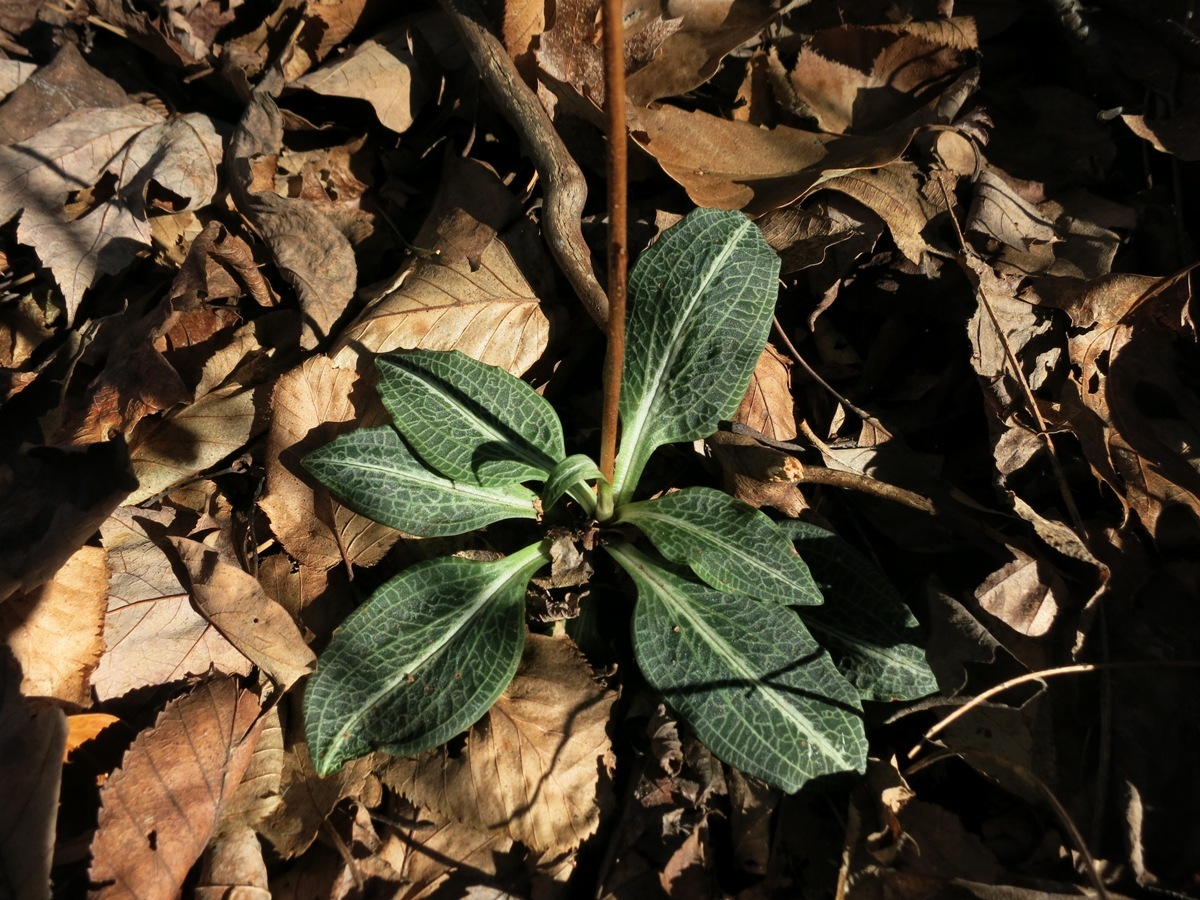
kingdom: Plantae
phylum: Tracheophyta
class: Liliopsida
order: Asparagales
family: Orchidaceae
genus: Goodyera
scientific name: Goodyera pubescens
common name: Downy rattlesnake-plantain
